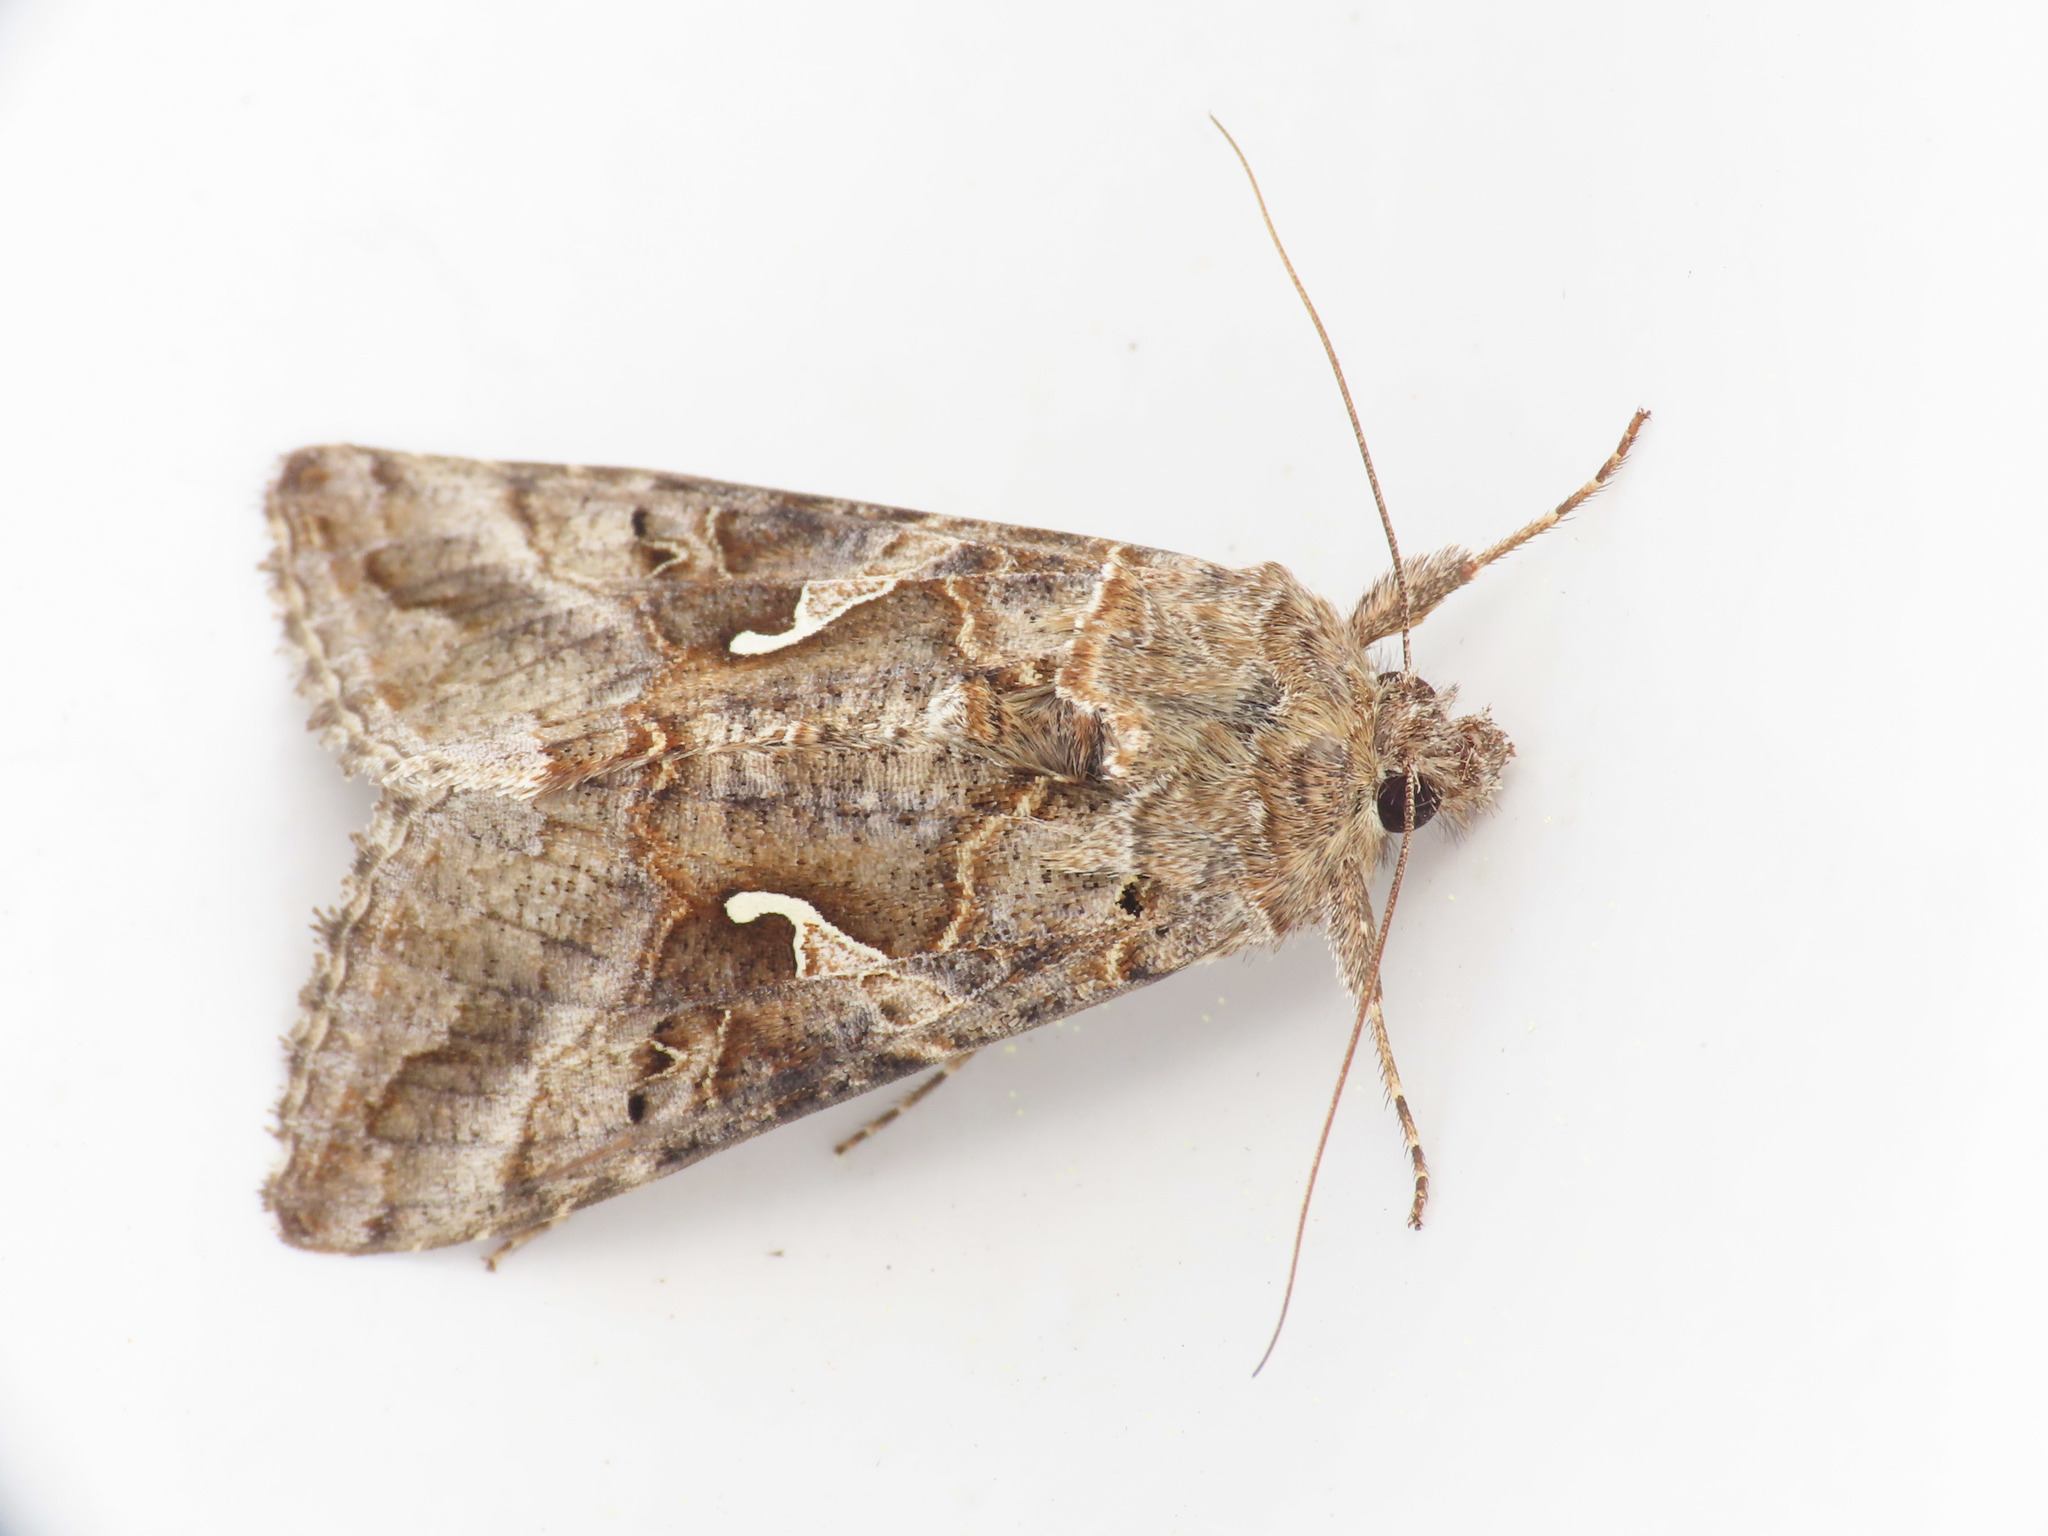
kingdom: Animalia
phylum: Arthropoda
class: Insecta
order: Lepidoptera
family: Noctuidae
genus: Autographa
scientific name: Autographa gamma
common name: Silver y
